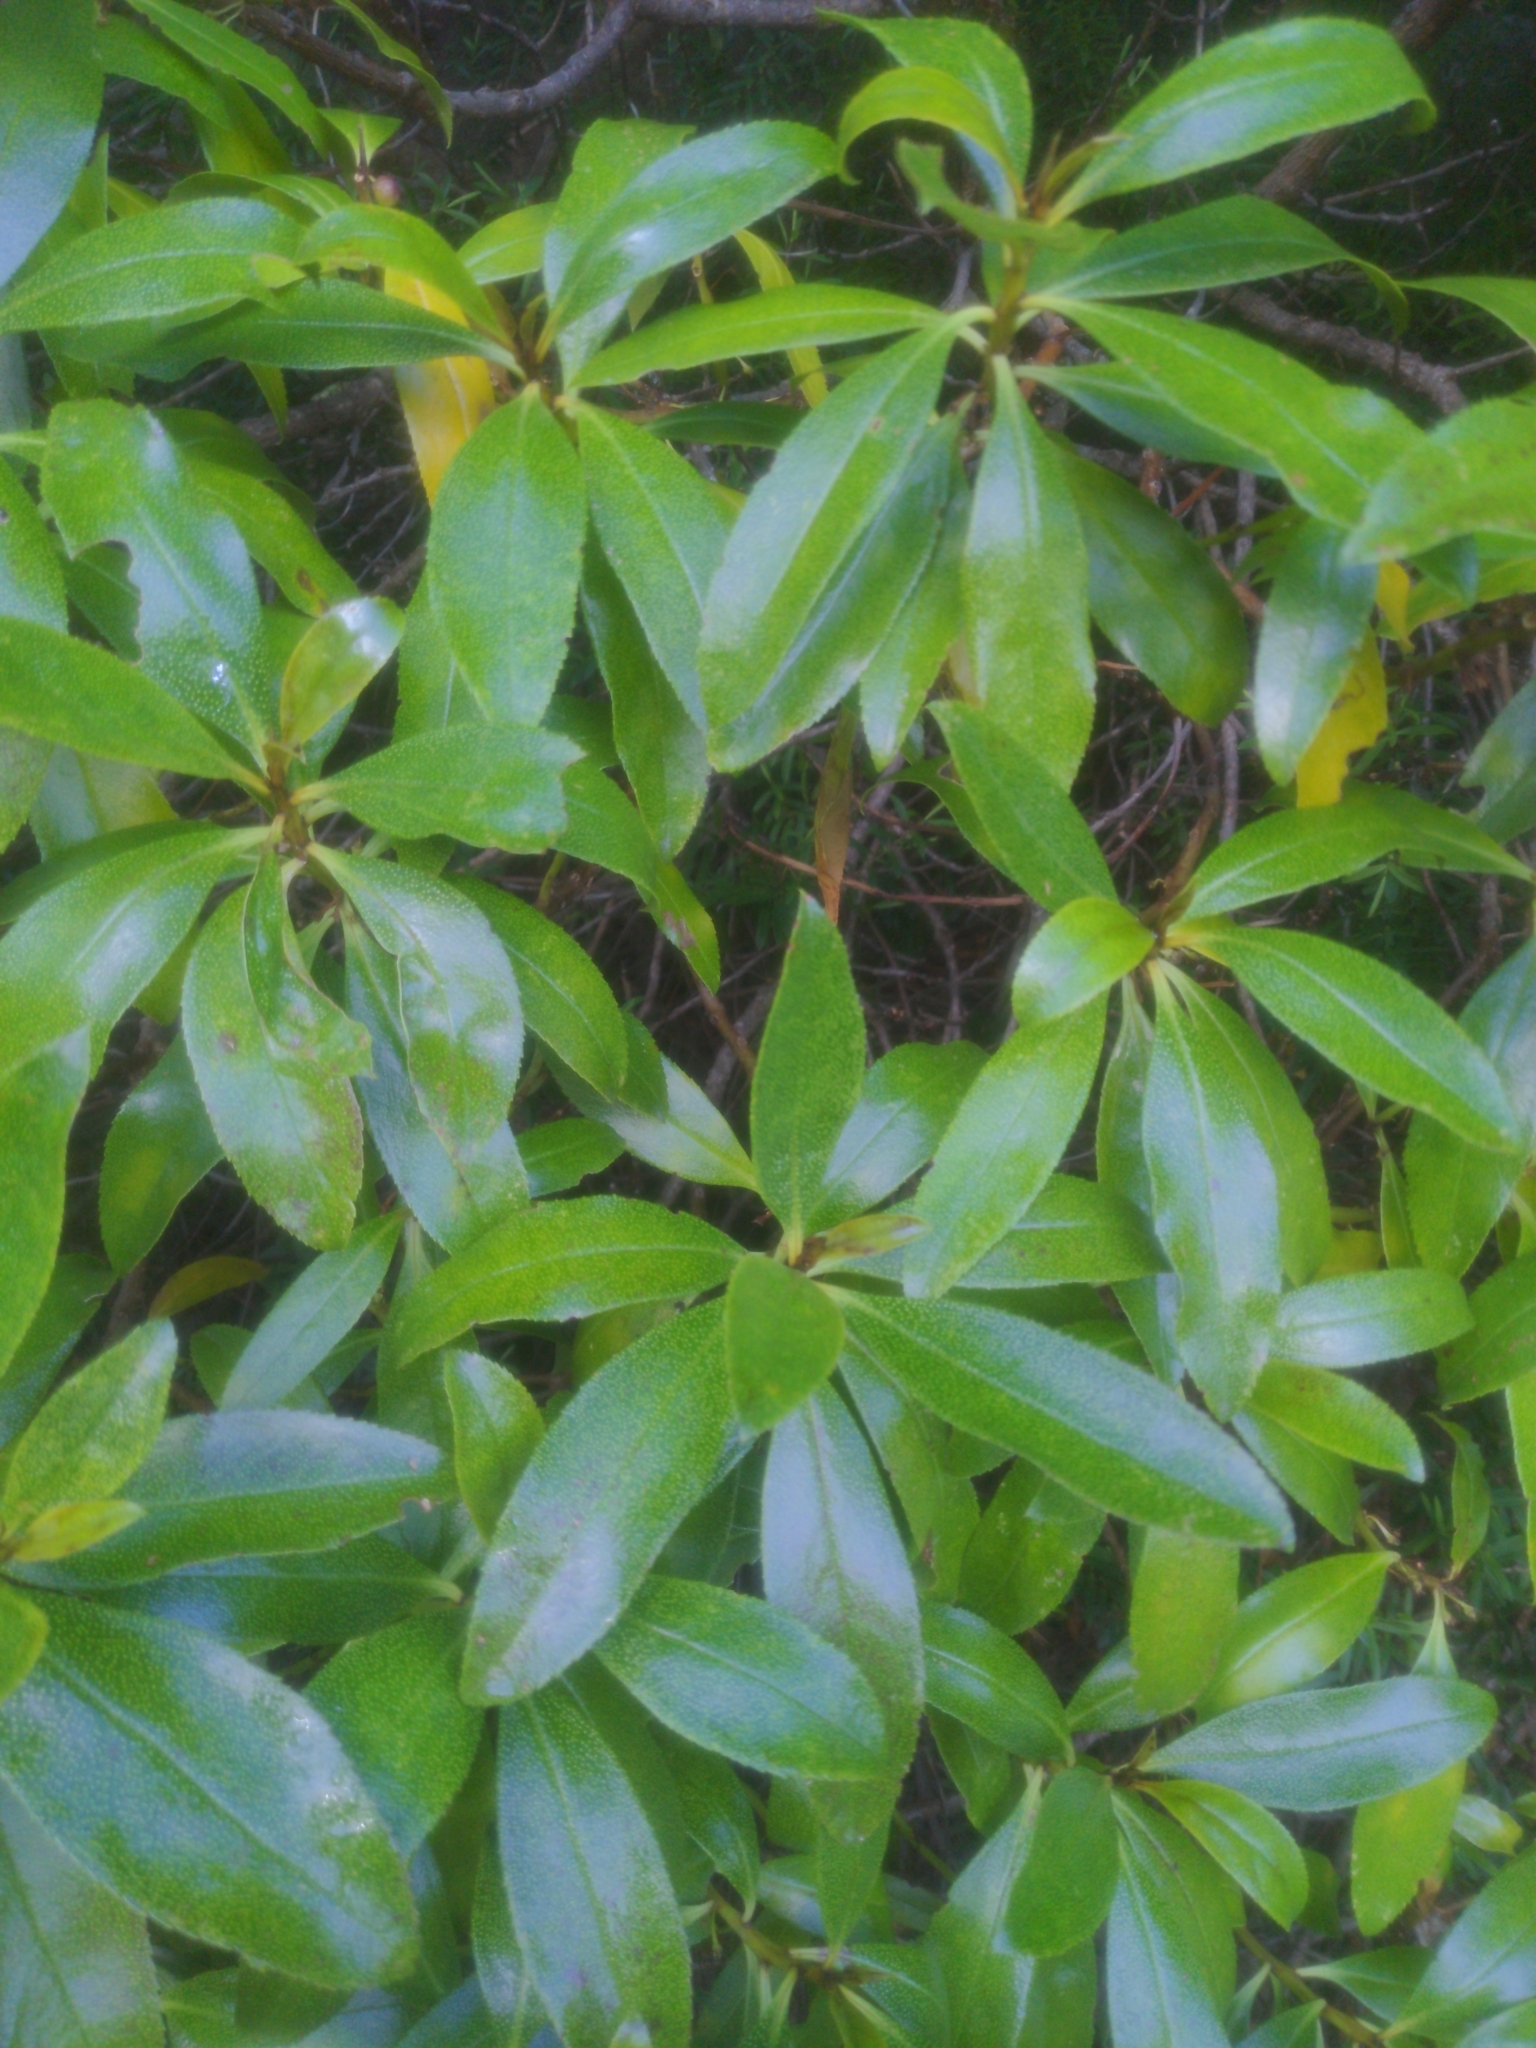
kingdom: Plantae
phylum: Tracheophyta
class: Magnoliopsida
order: Lamiales
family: Scrophulariaceae
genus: Myoporum
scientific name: Myoporum laetum
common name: Ngaio tree
